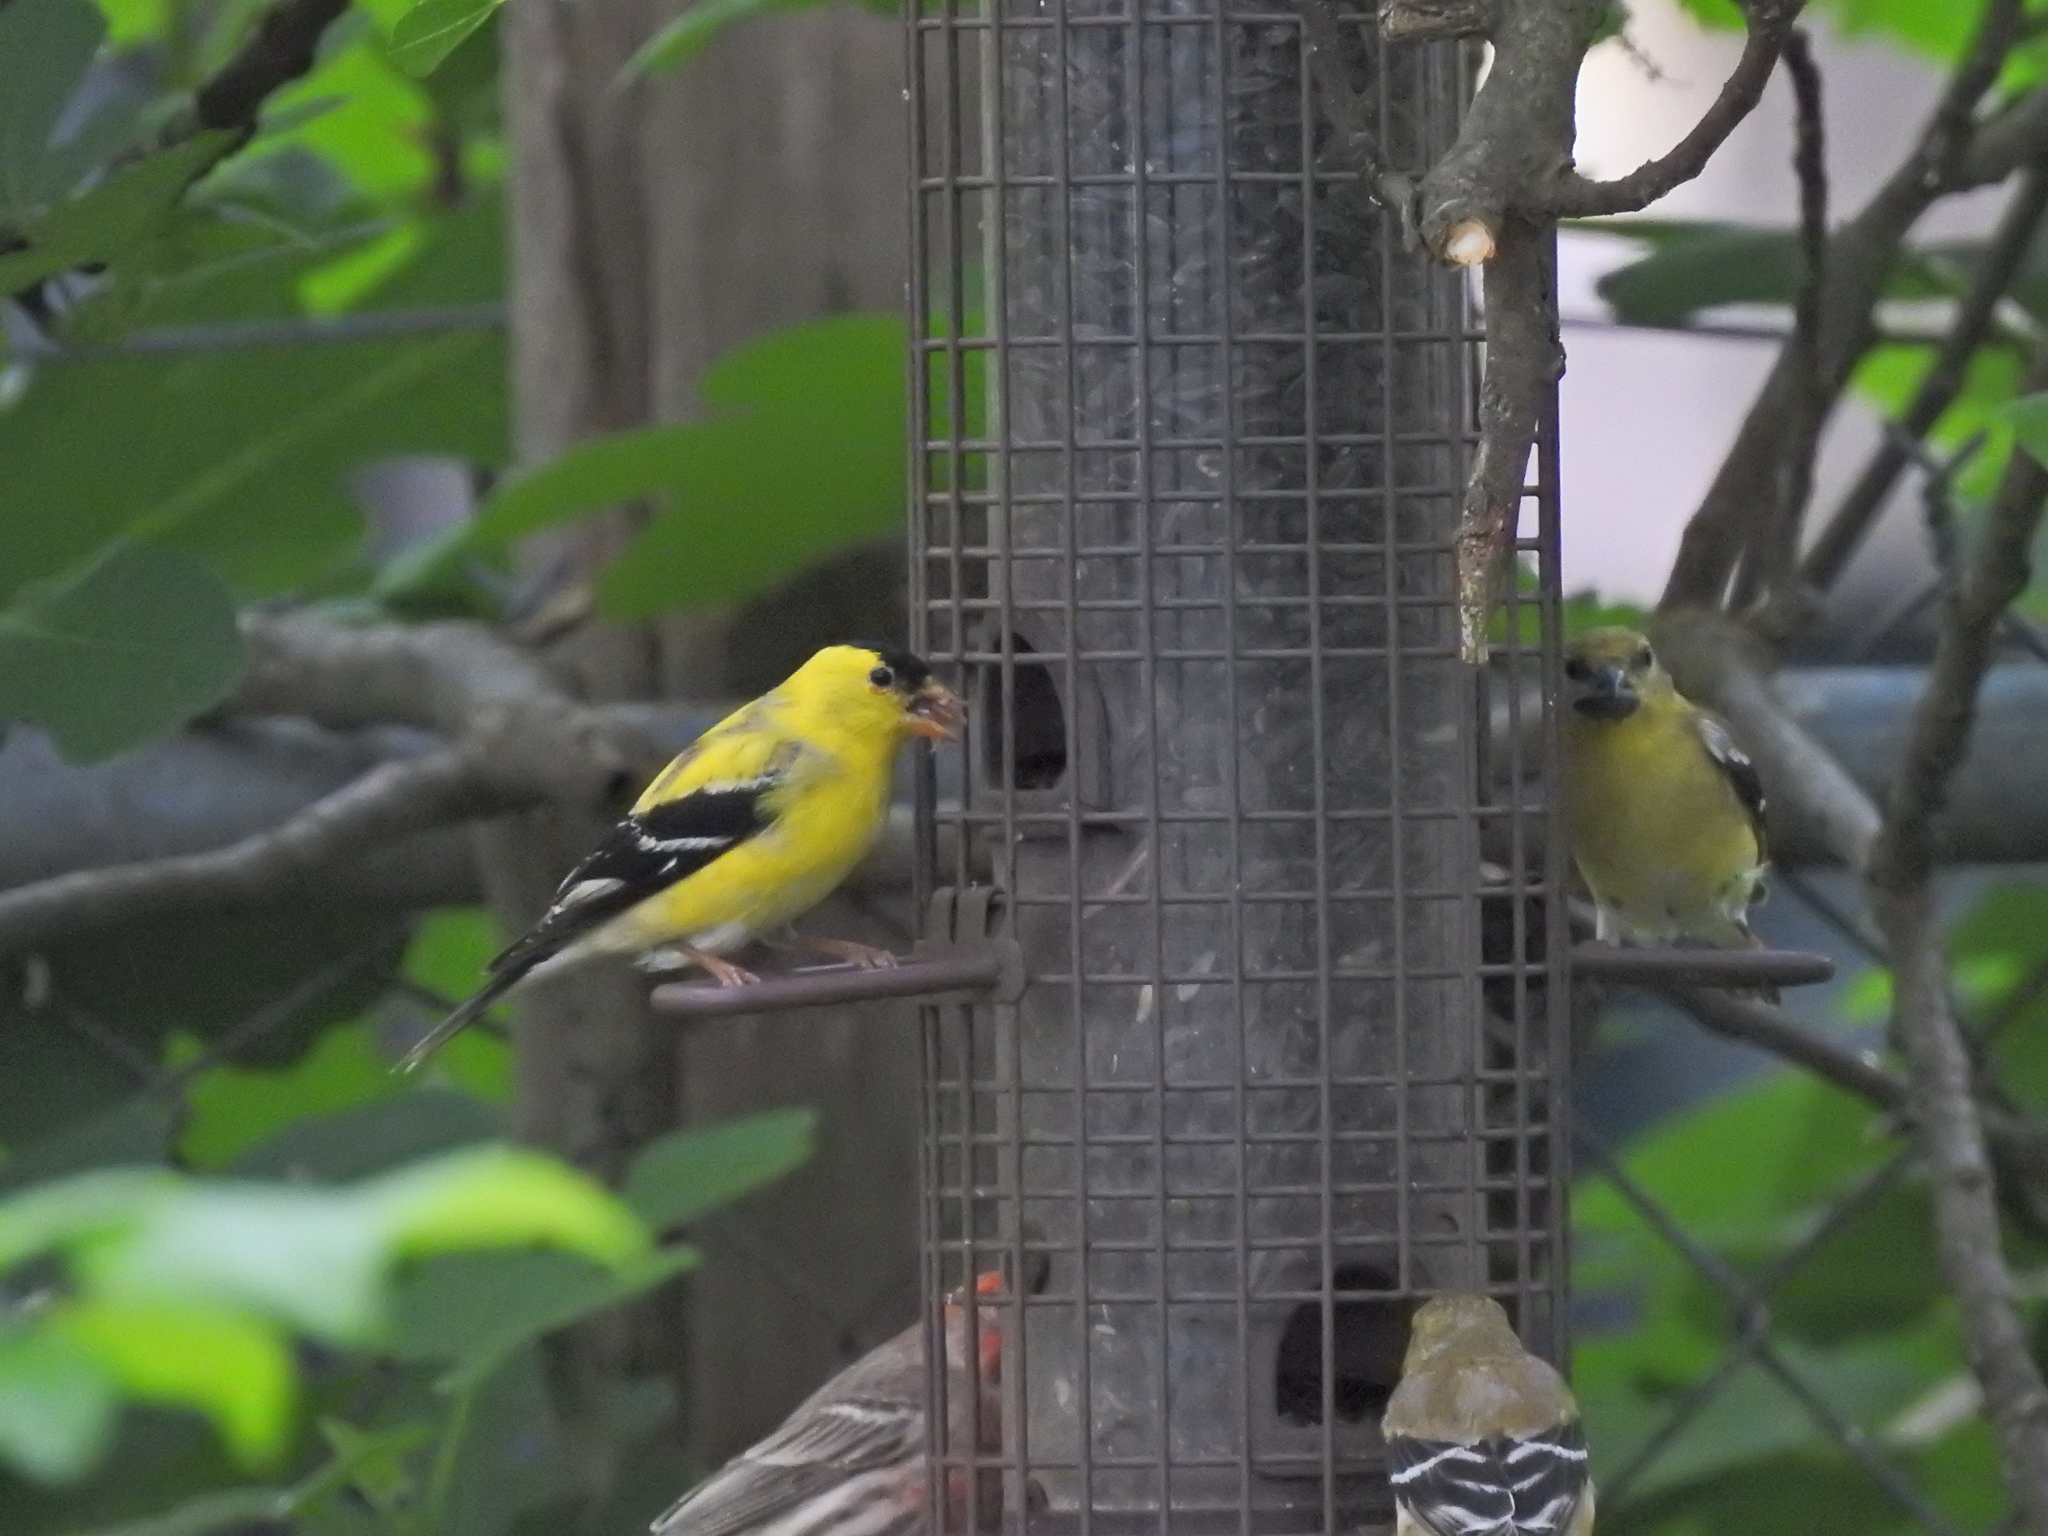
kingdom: Animalia
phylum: Chordata
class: Aves
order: Passeriformes
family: Fringillidae
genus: Spinus
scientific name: Spinus tristis
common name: American goldfinch
